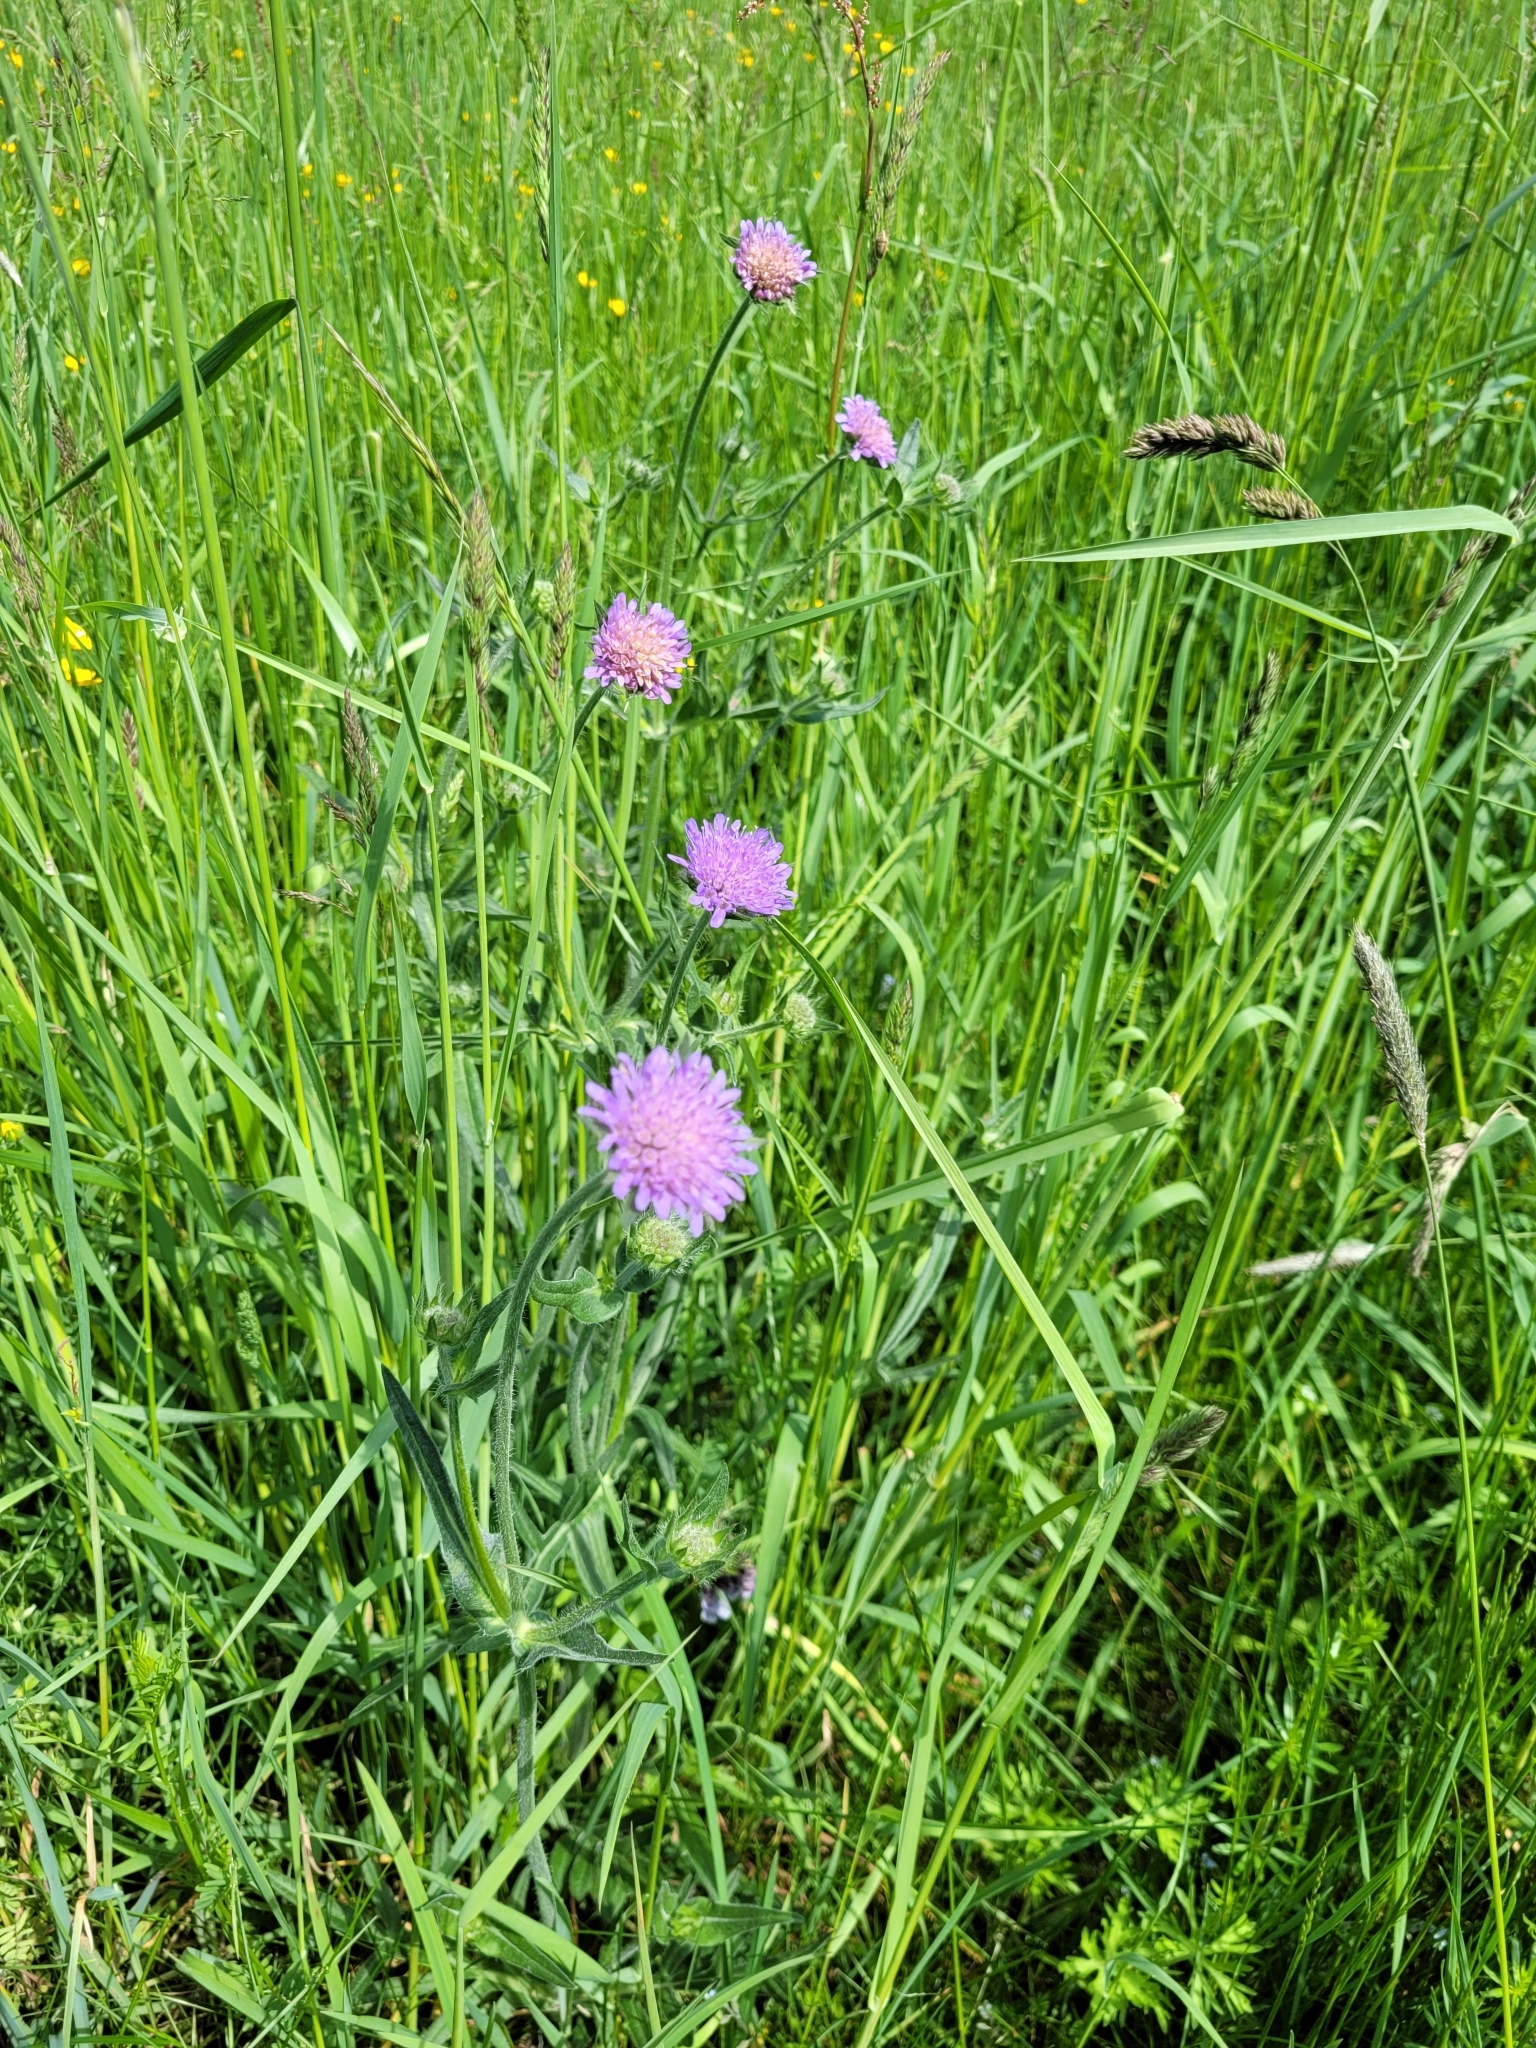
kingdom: Plantae
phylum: Tracheophyta
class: Magnoliopsida
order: Dipsacales
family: Caprifoliaceae
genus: Knautia
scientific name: Knautia arvensis
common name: Field scabiosa
